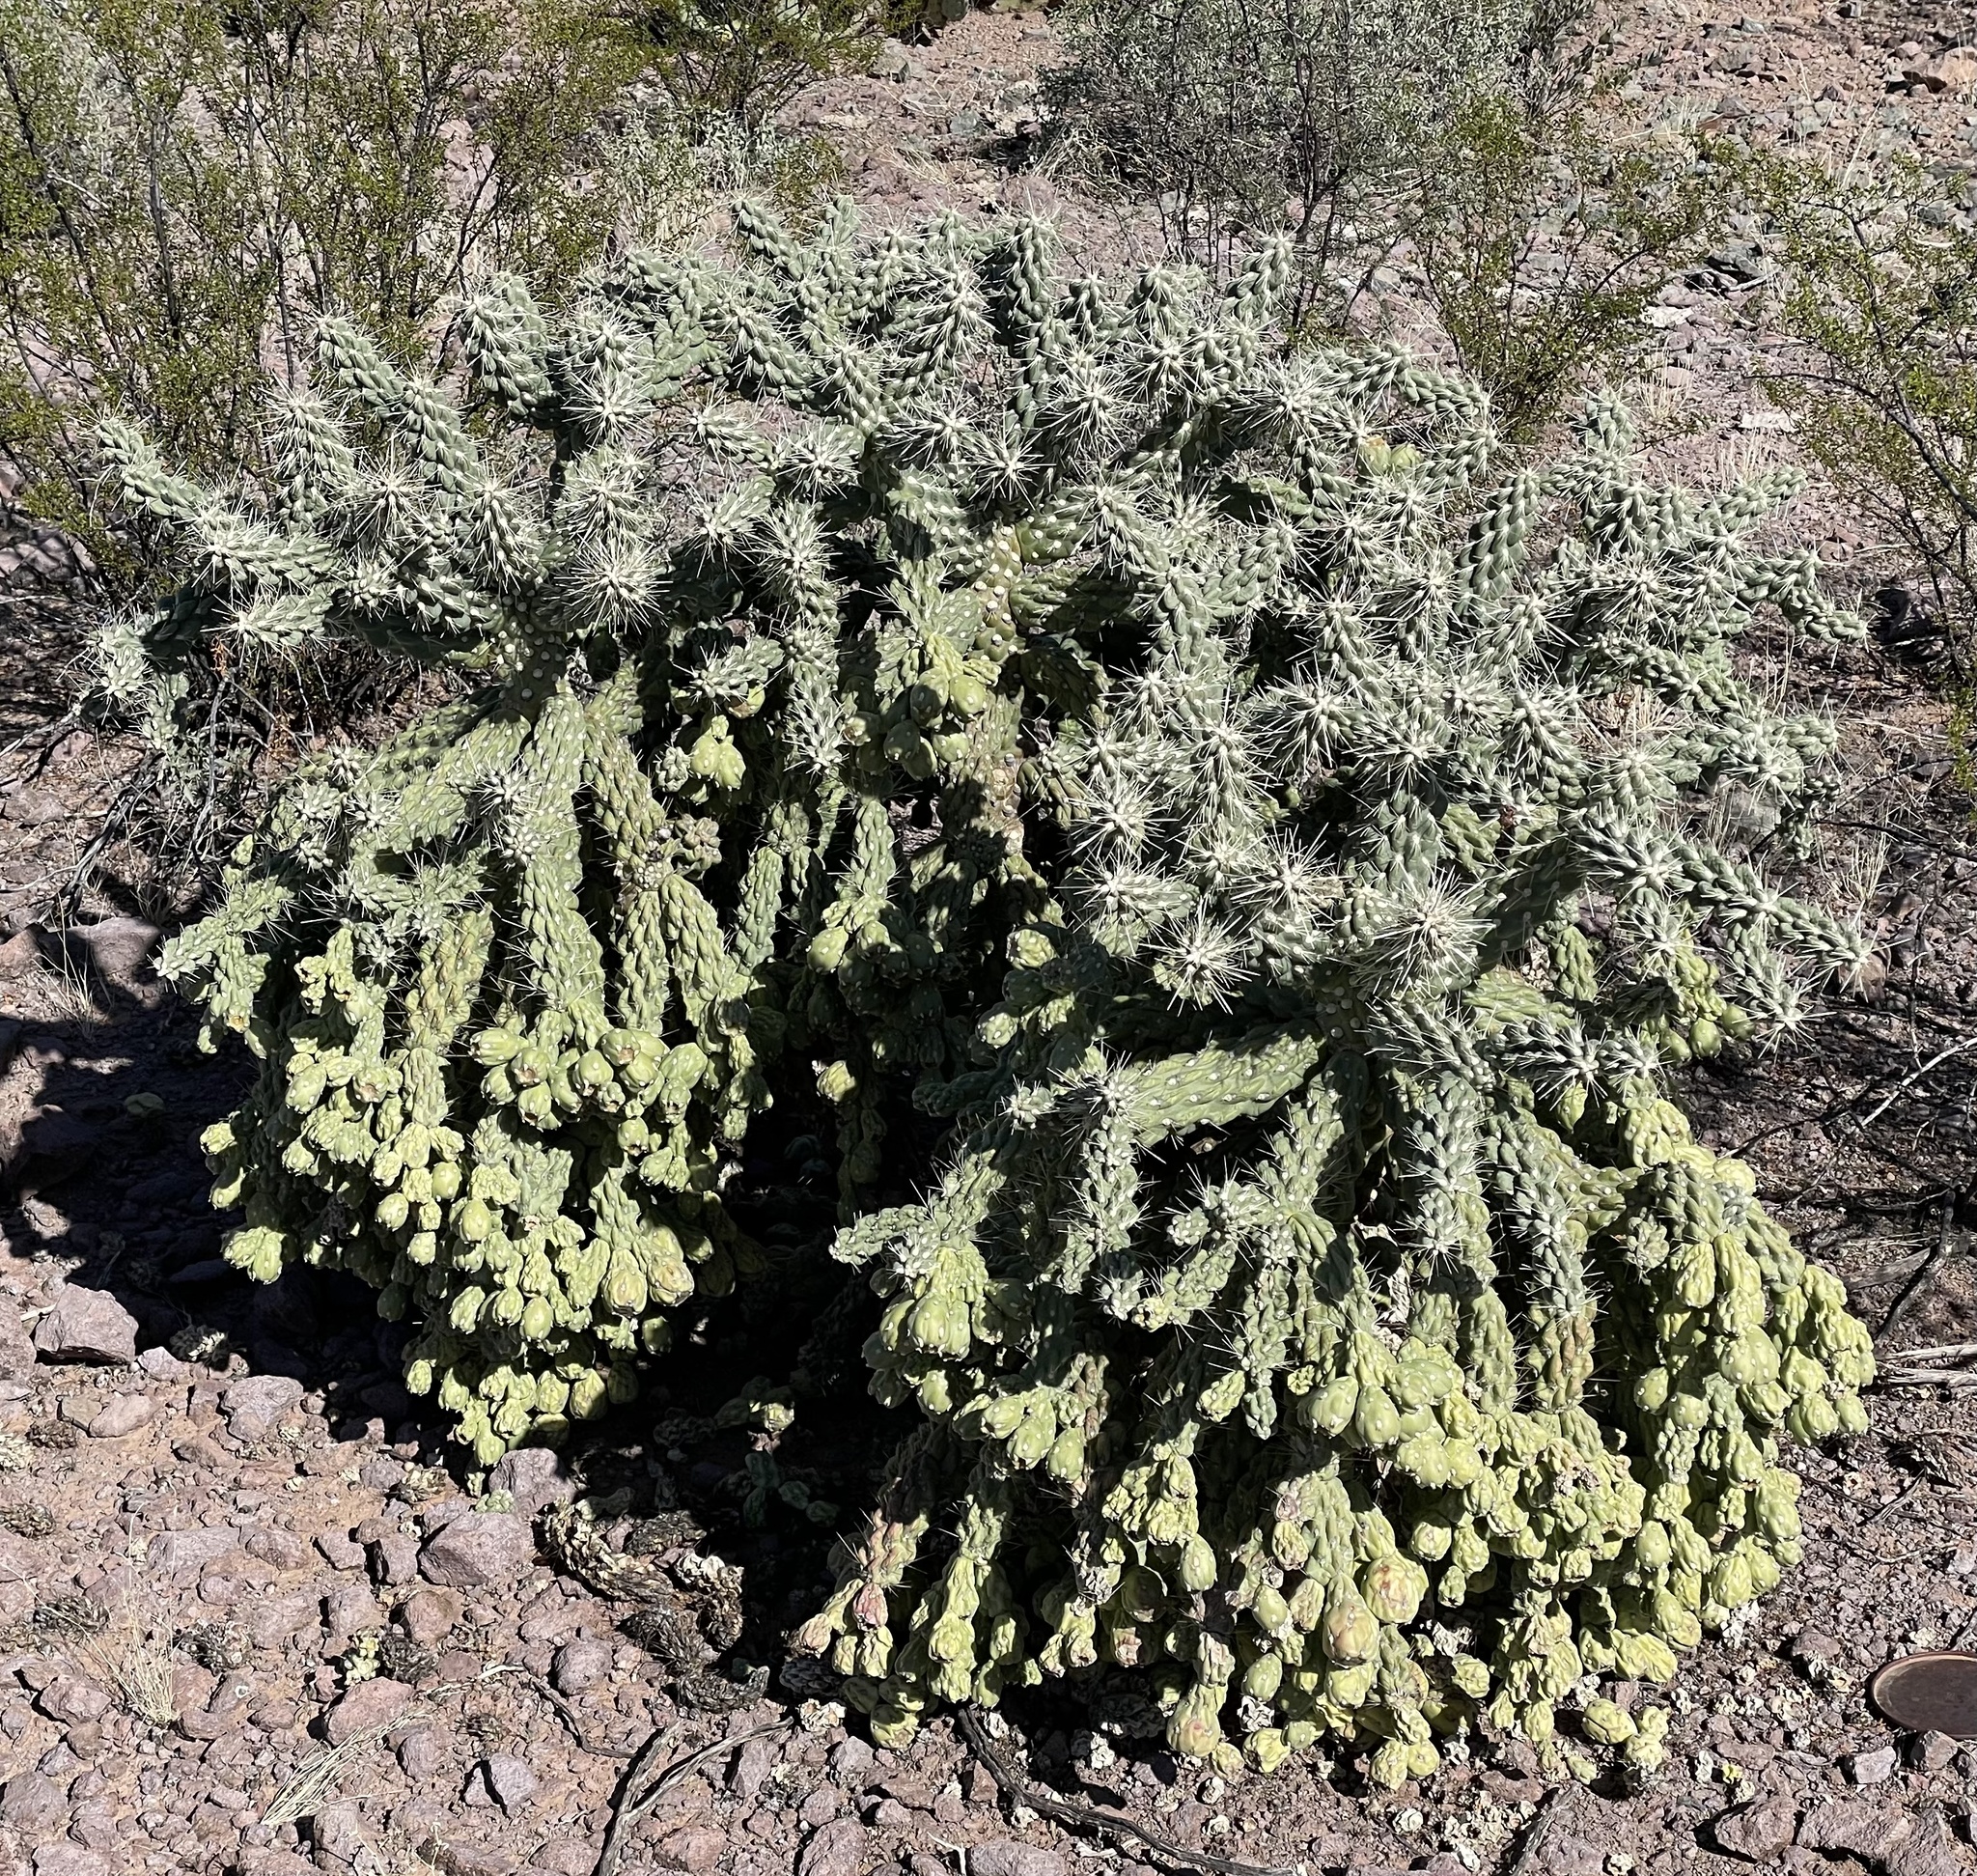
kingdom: Plantae
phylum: Tracheophyta
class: Magnoliopsida
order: Caryophyllales
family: Cactaceae
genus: Cylindropuntia
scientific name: Cylindropuntia fulgida
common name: Jumping cholla
